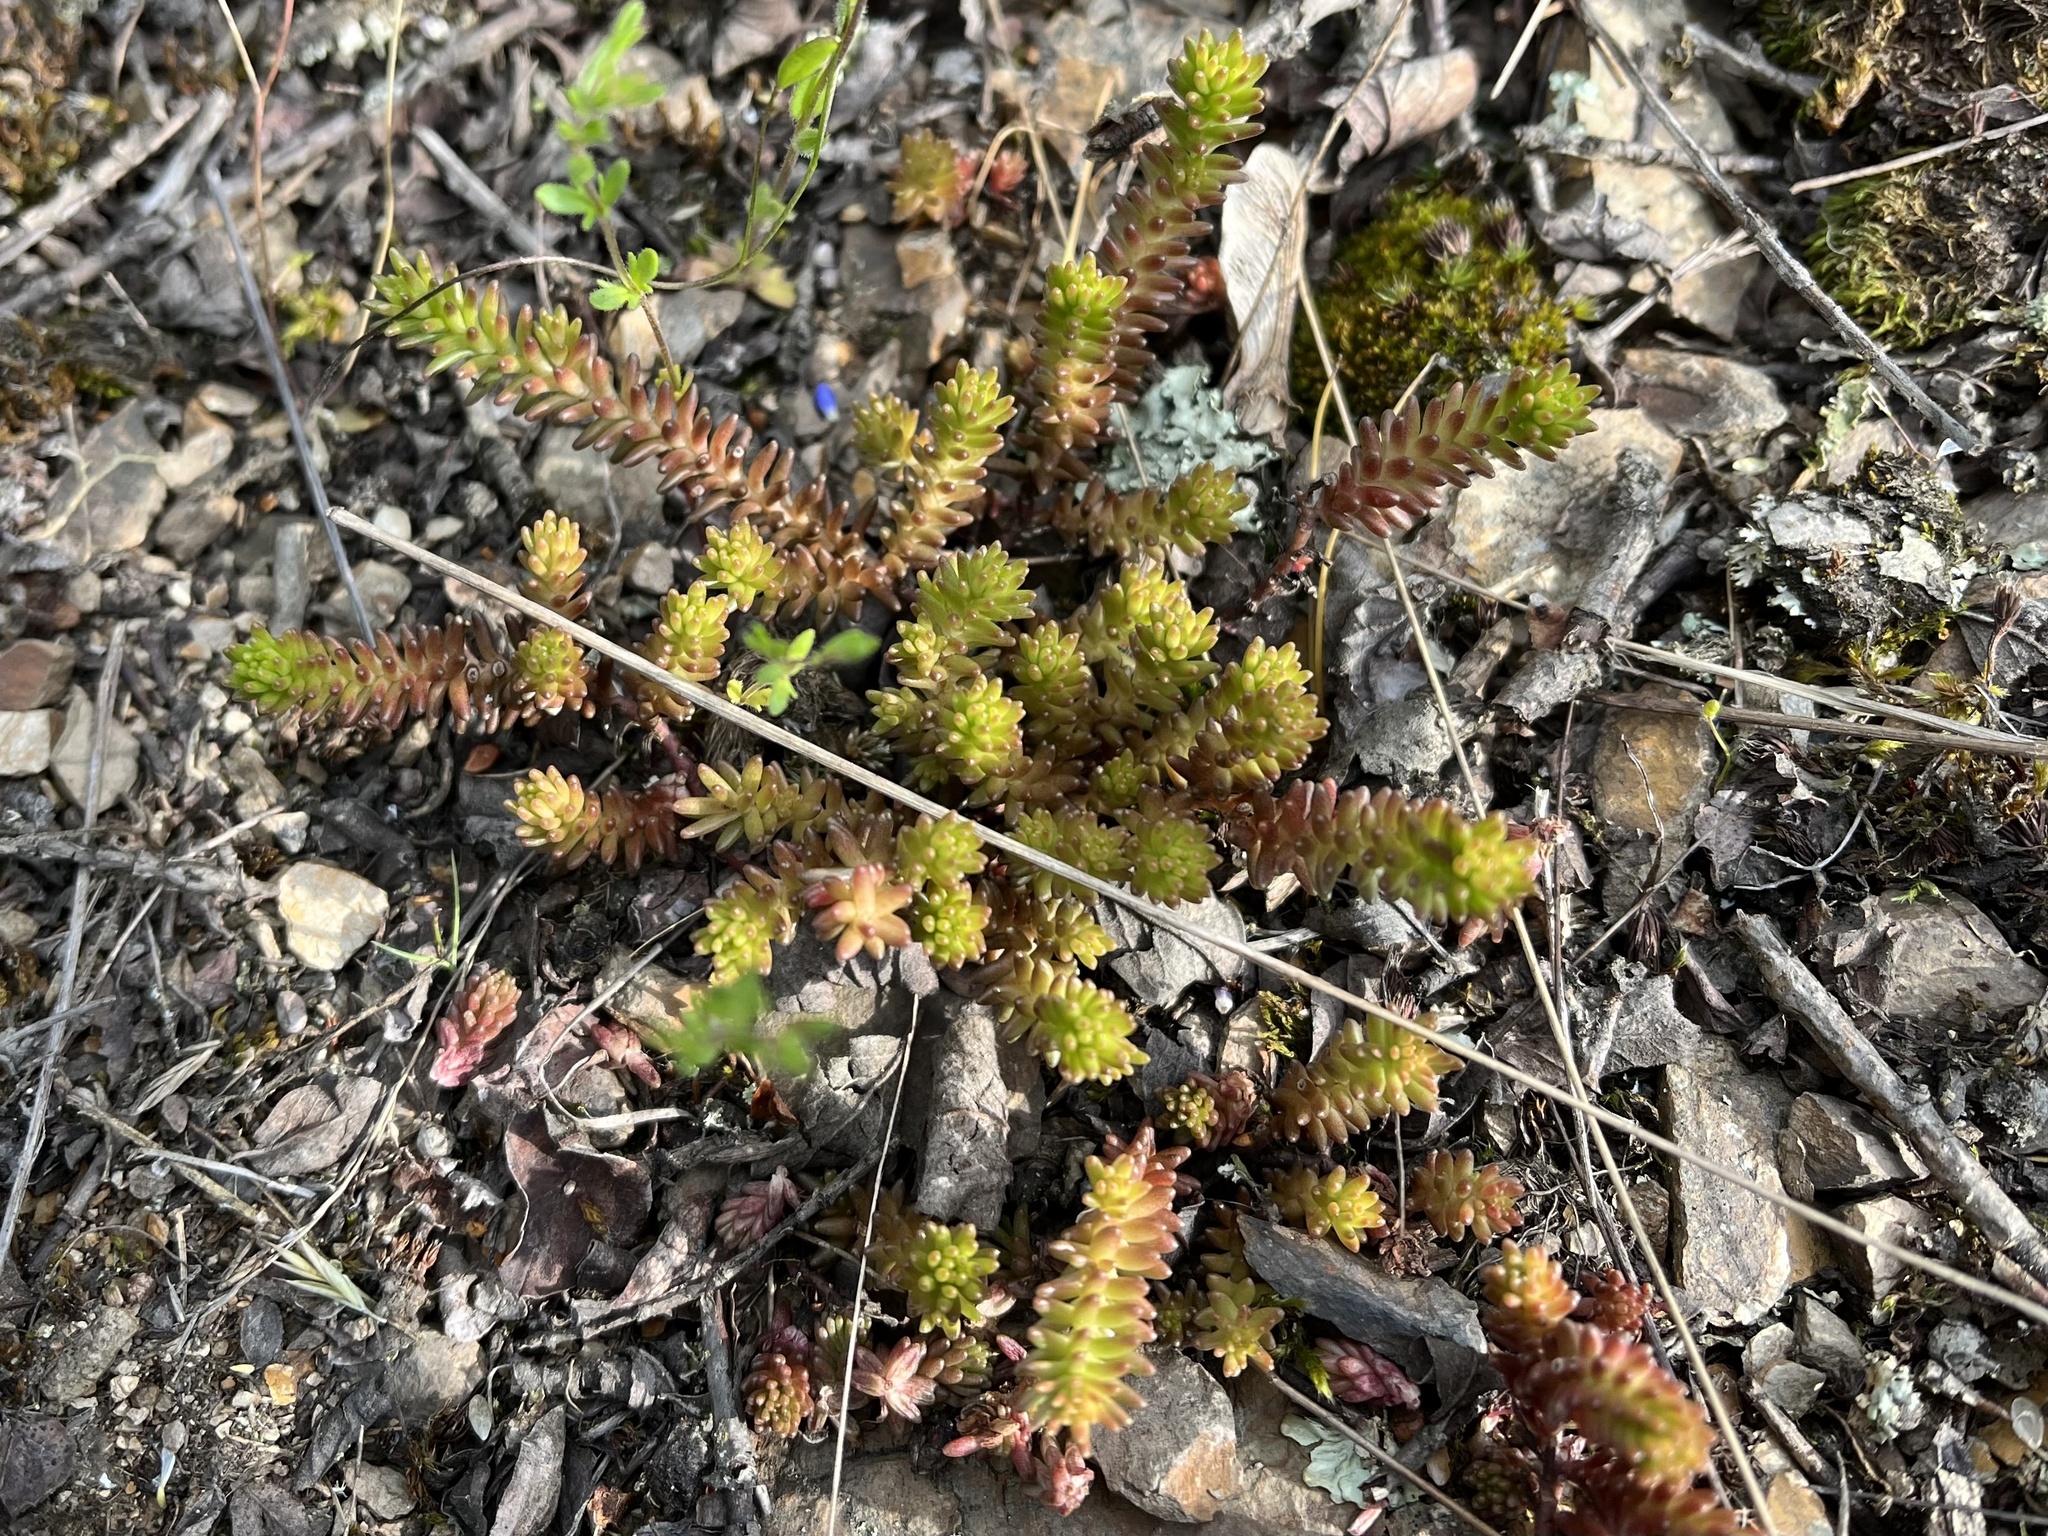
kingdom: Plantae
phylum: Tracheophyta
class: Magnoliopsida
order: Saxifragales
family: Crassulaceae
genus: Sedum
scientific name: Sedum sexangulare
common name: Tasteless stonecrop
